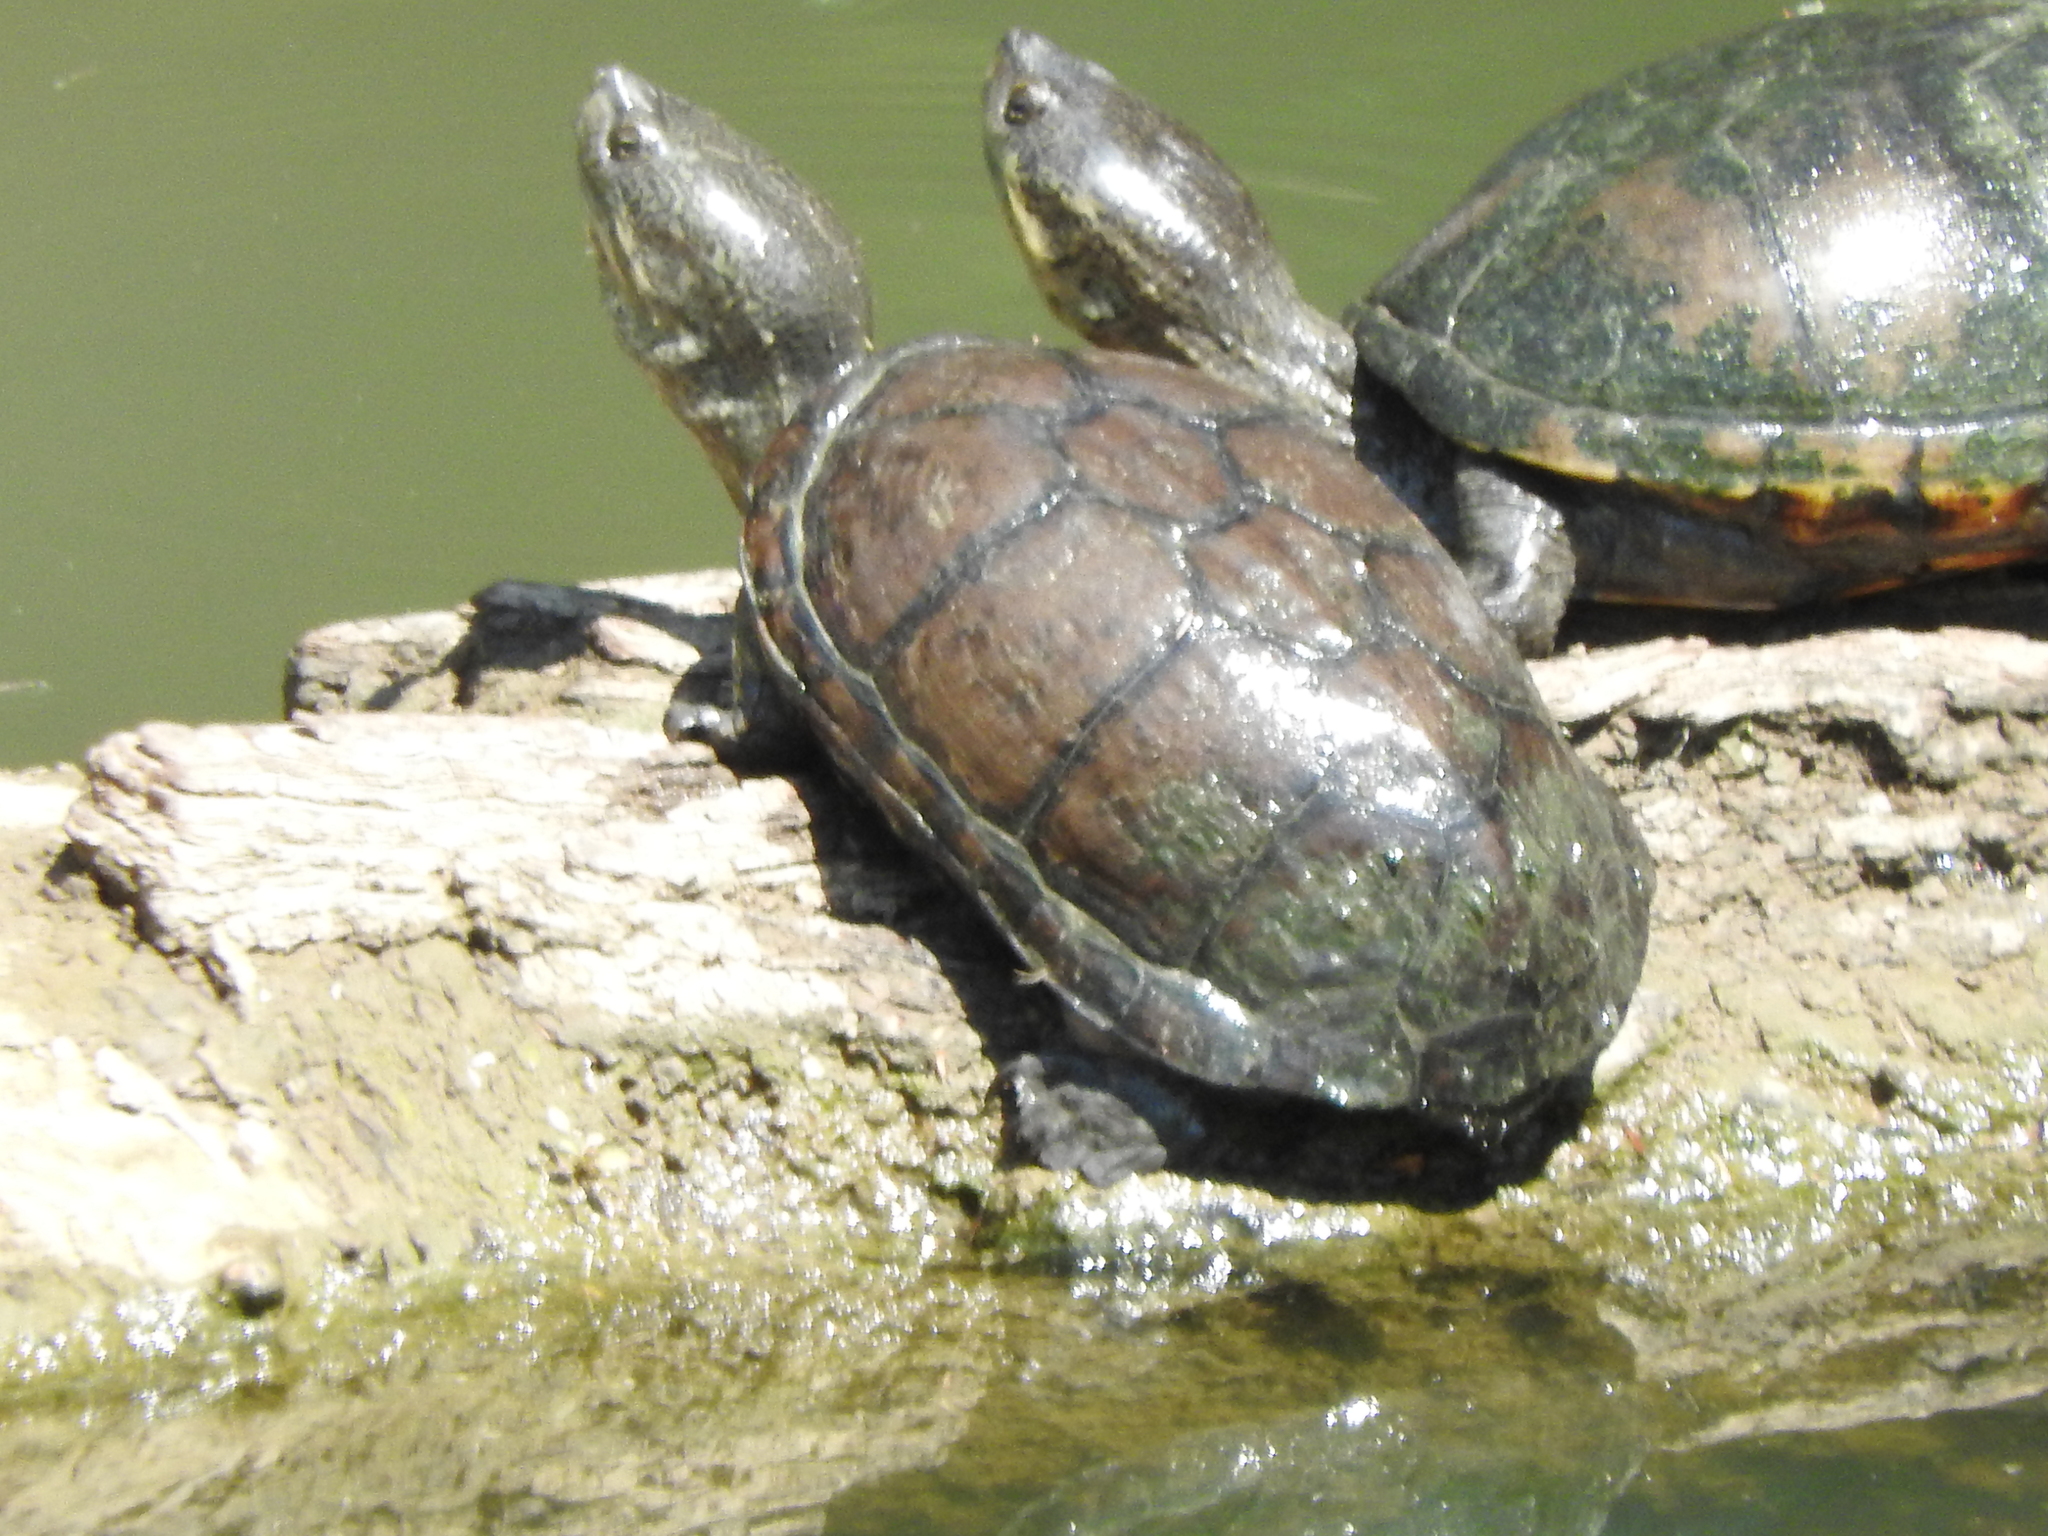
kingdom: Animalia
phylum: Chordata
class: Testudines
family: Kinosternidae
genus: Kinosternon
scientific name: Kinosternon integrum
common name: Mexican mud turtle
